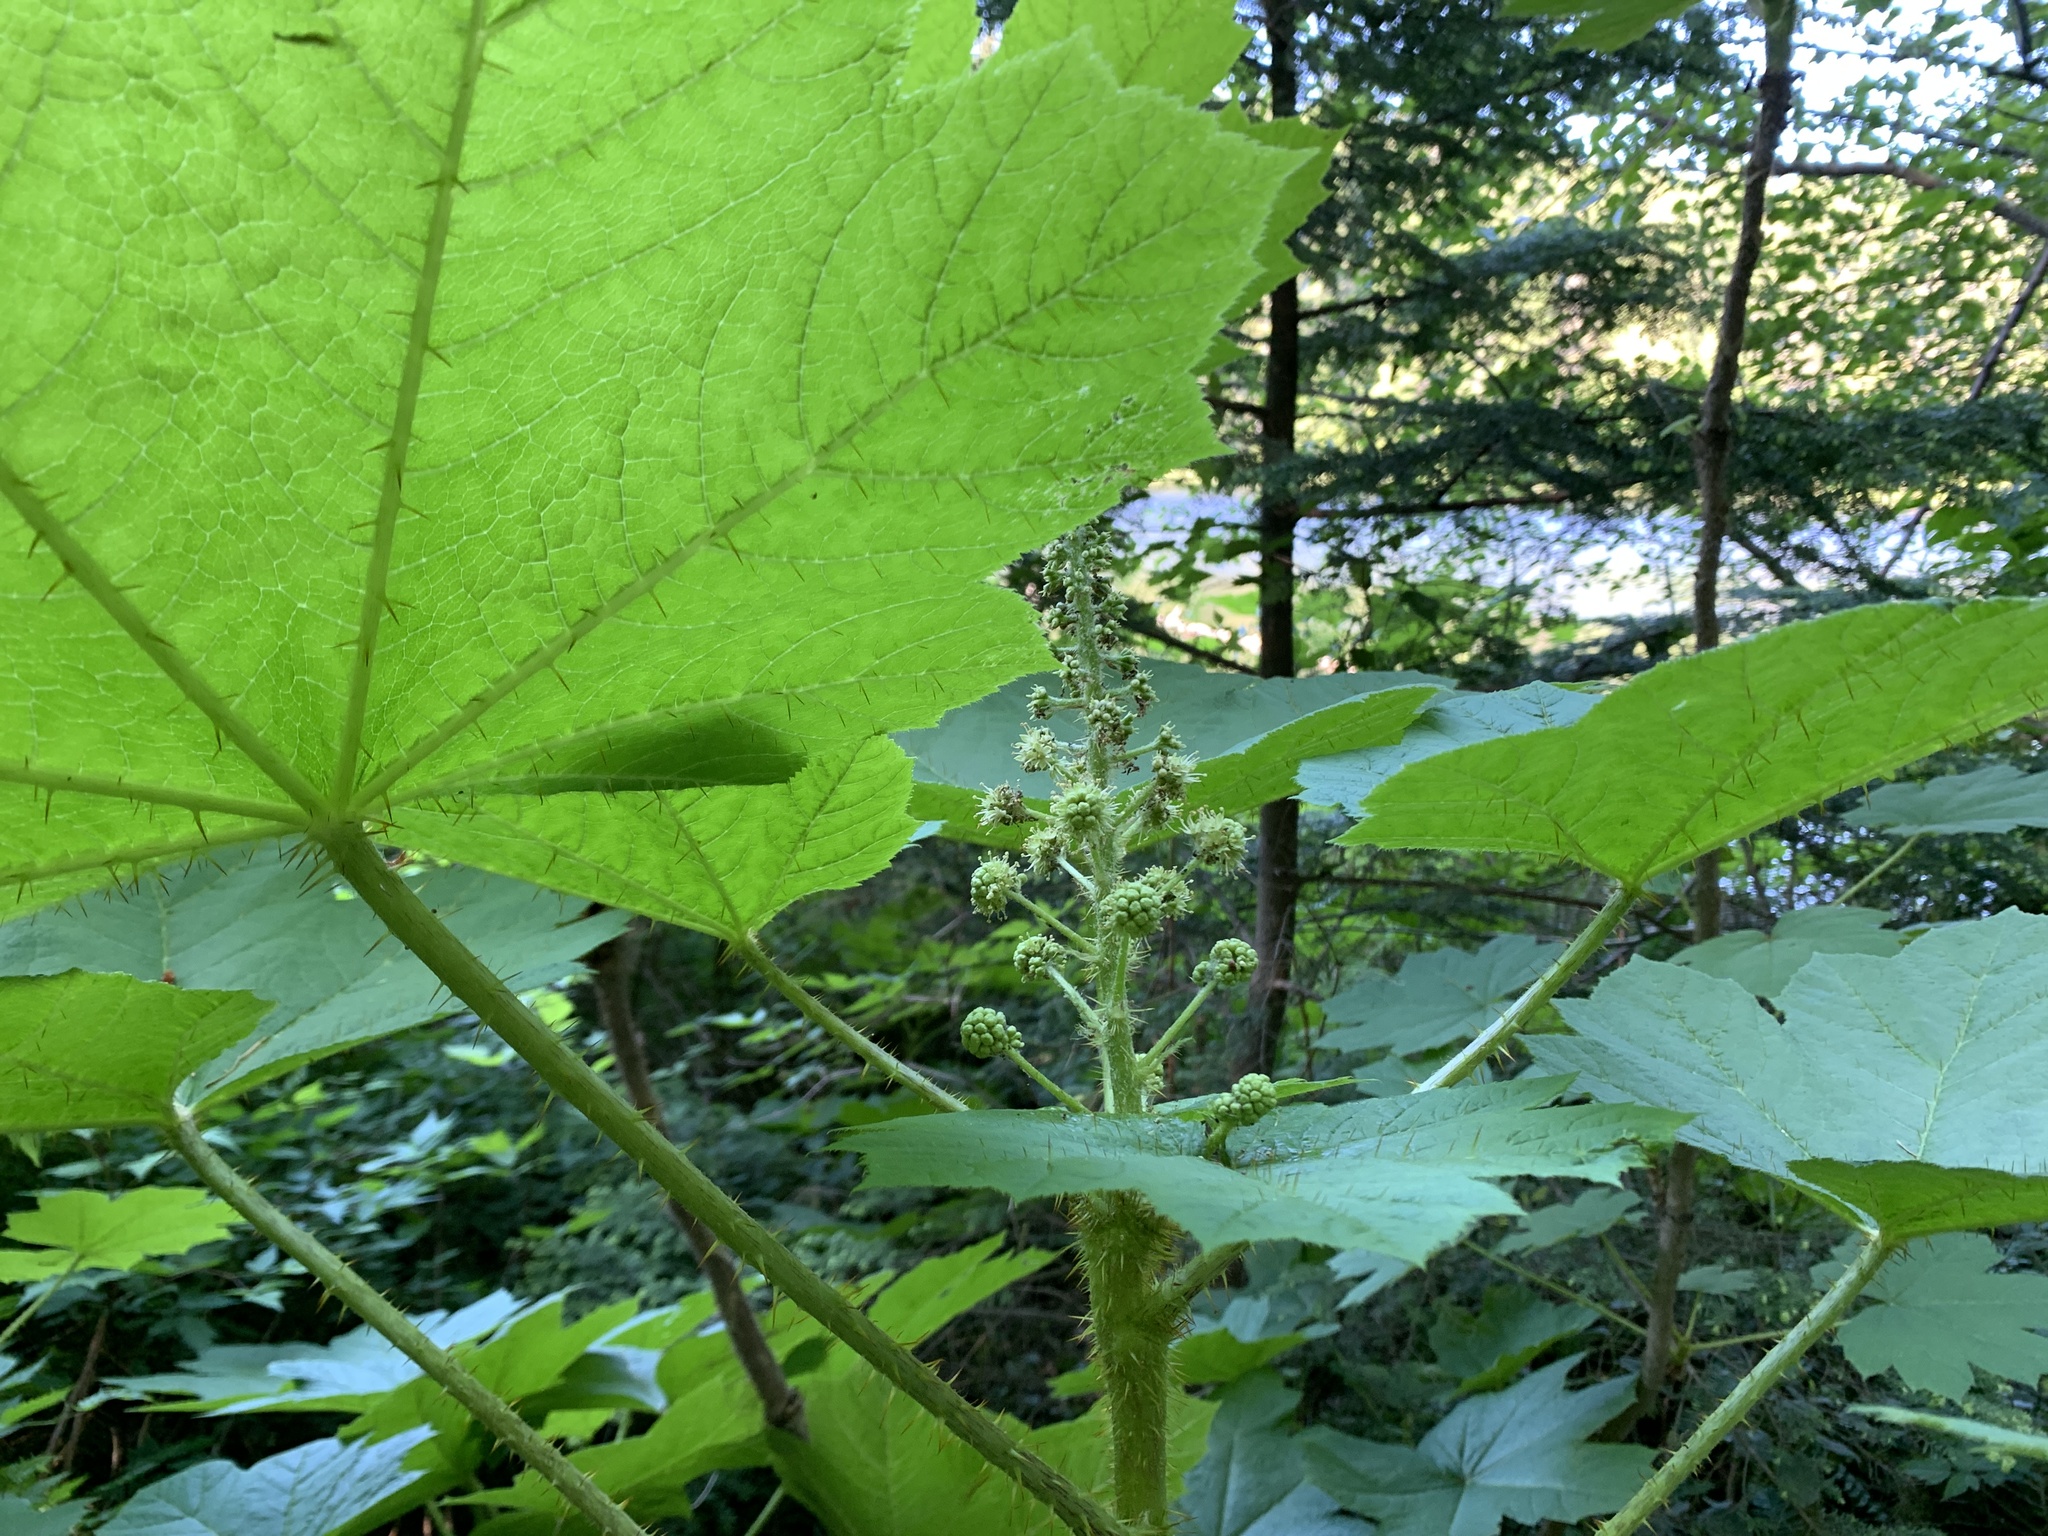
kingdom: Plantae
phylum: Tracheophyta
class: Magnoliopsida
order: Apiales
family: Araliaceae
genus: Oplopanax
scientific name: Oplopanax horridus
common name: Devil's walking-stick
